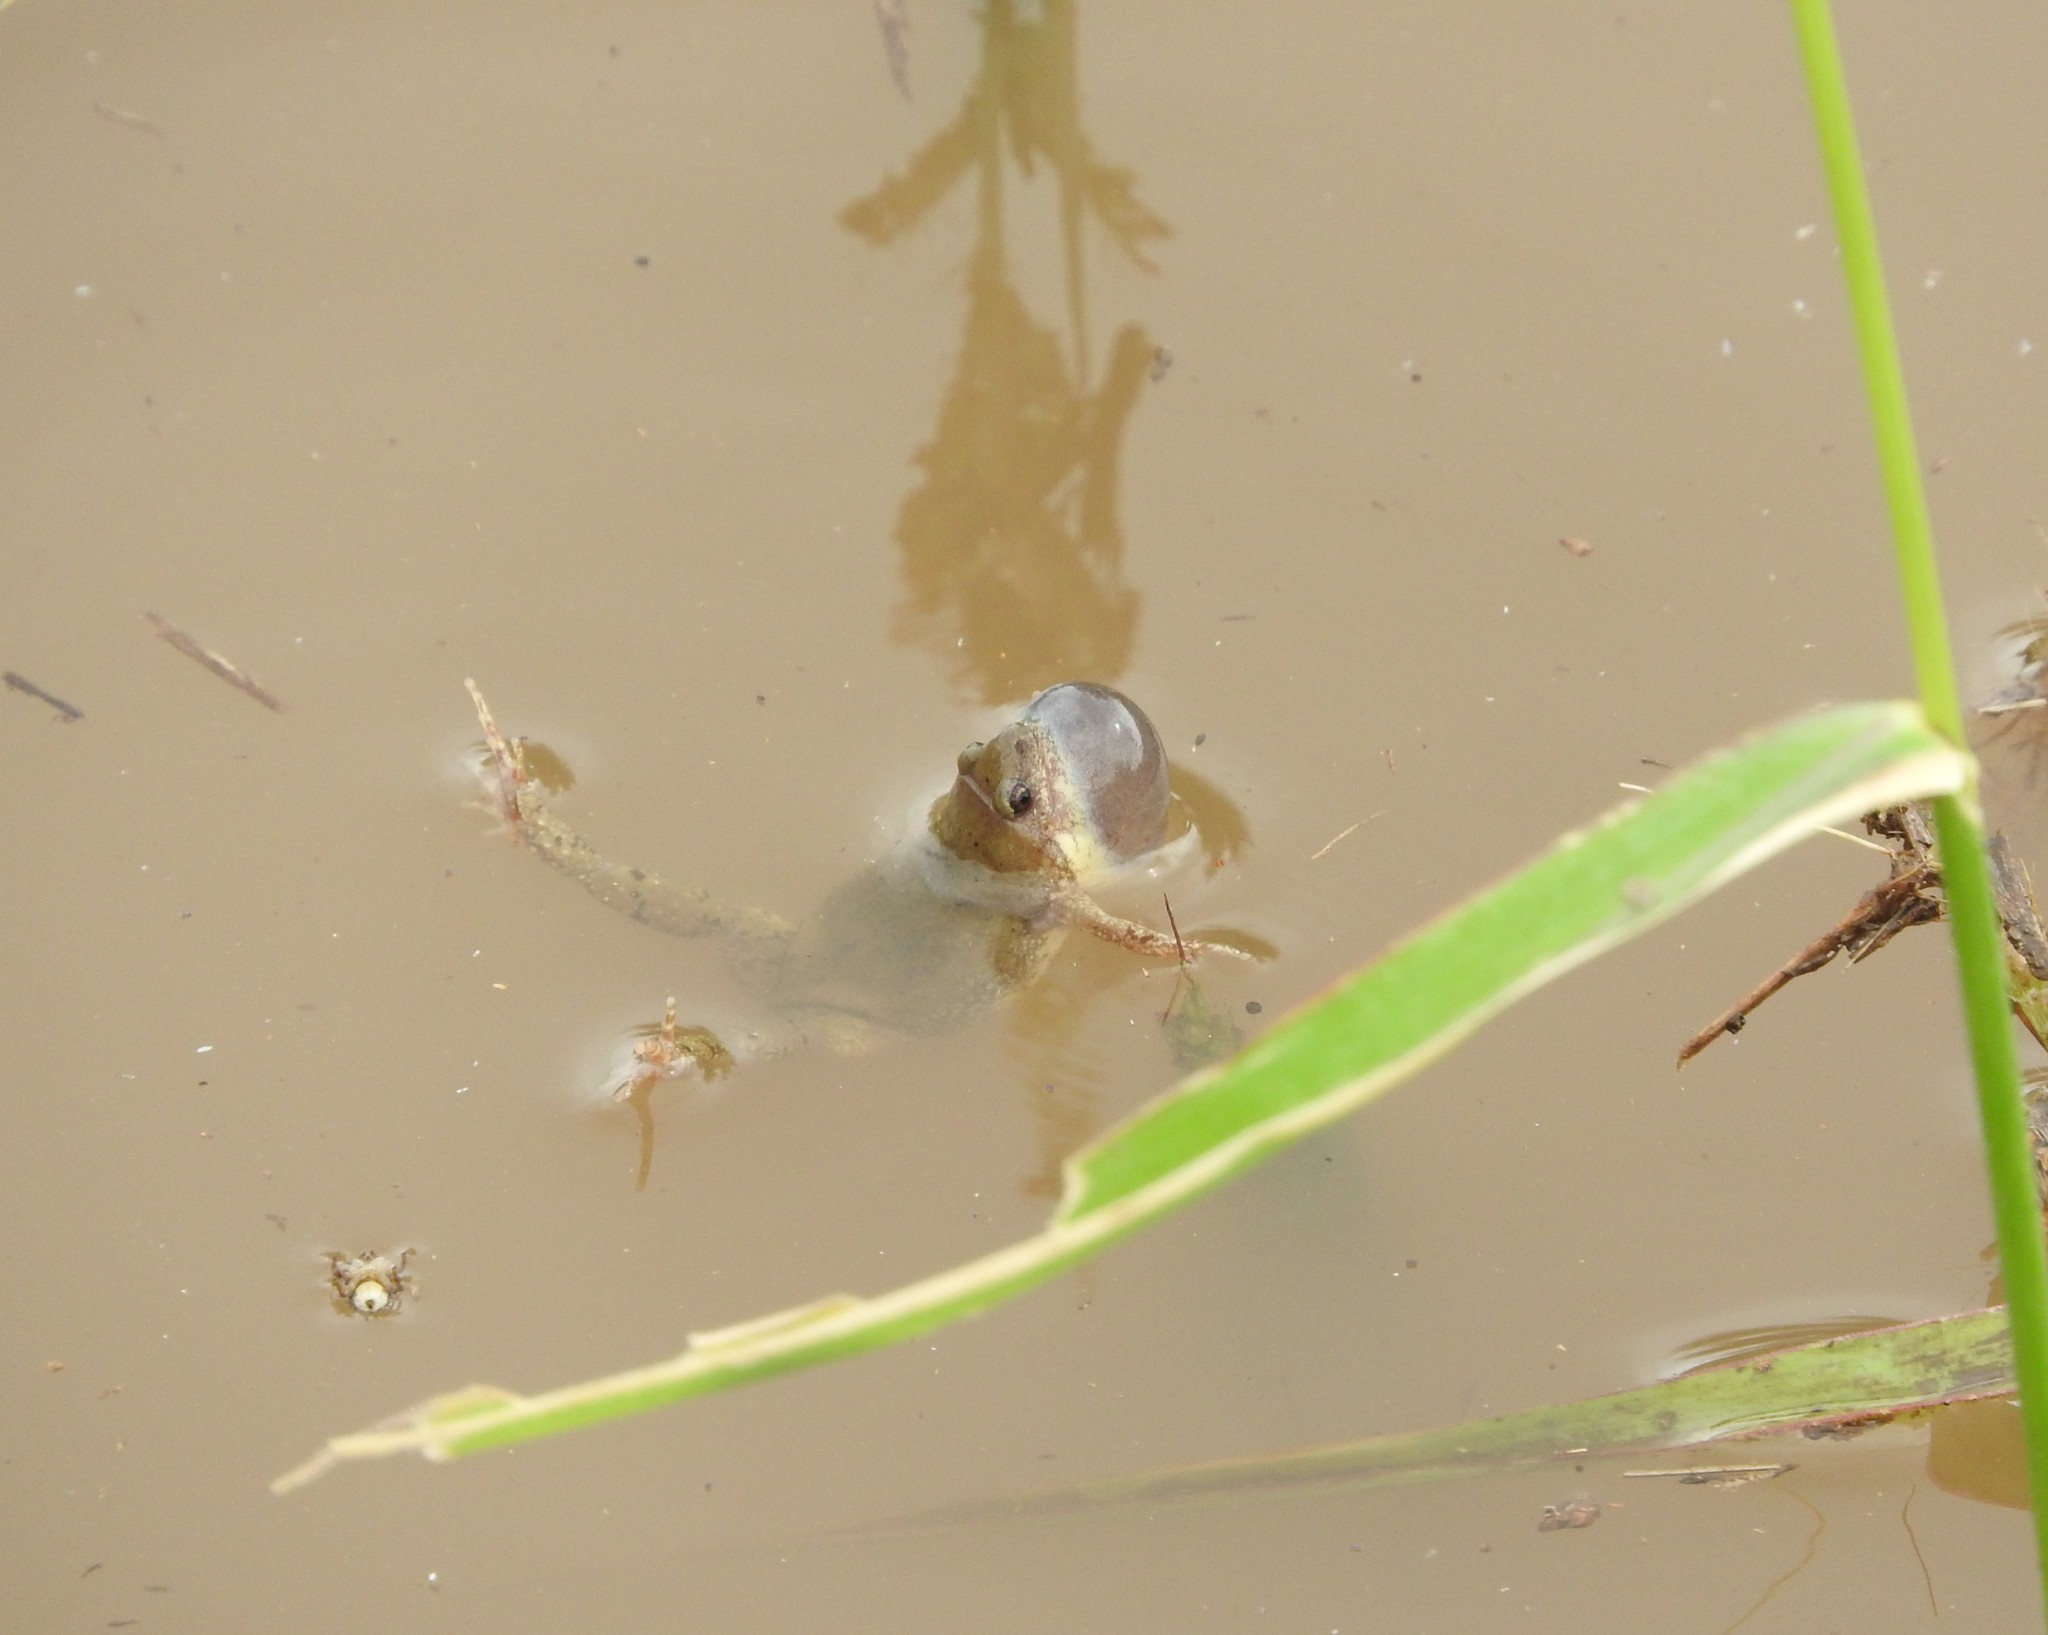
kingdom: Animalia
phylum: Chordata
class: Amphibia
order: Anura
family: Microhylidae
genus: Gastrophryne
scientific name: Gastrophryne olivacea
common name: Great plains narrow-mouthed toad
